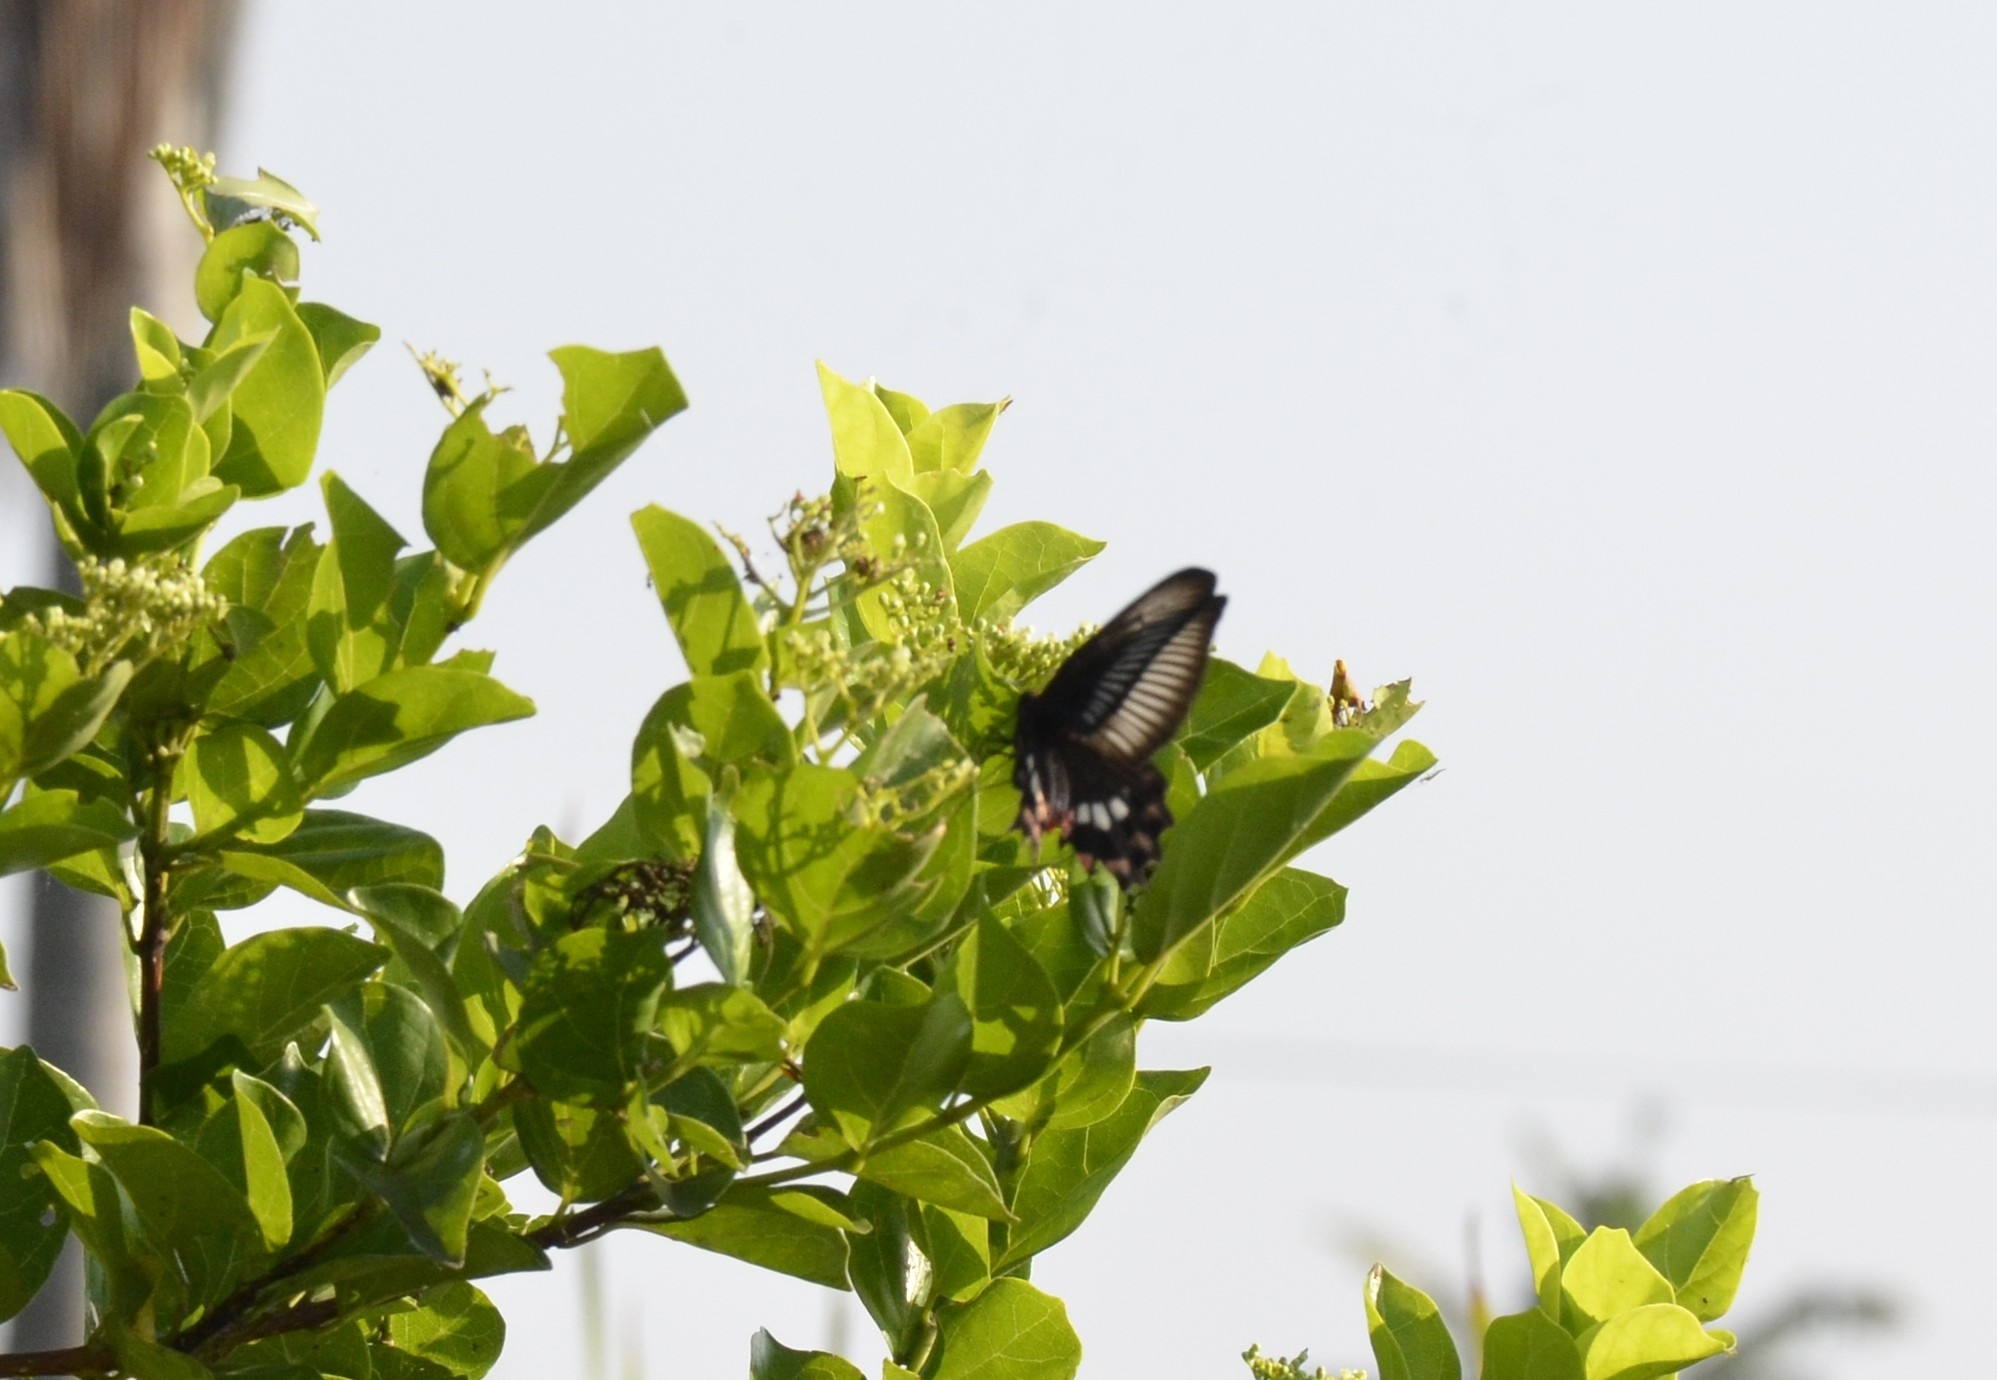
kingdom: Animalia
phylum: Arthropoda
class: Insecta
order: Lepidoptera
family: Papilionidae
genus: Pachliopta
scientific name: Pachliopta aristolochiae
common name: Common rose
